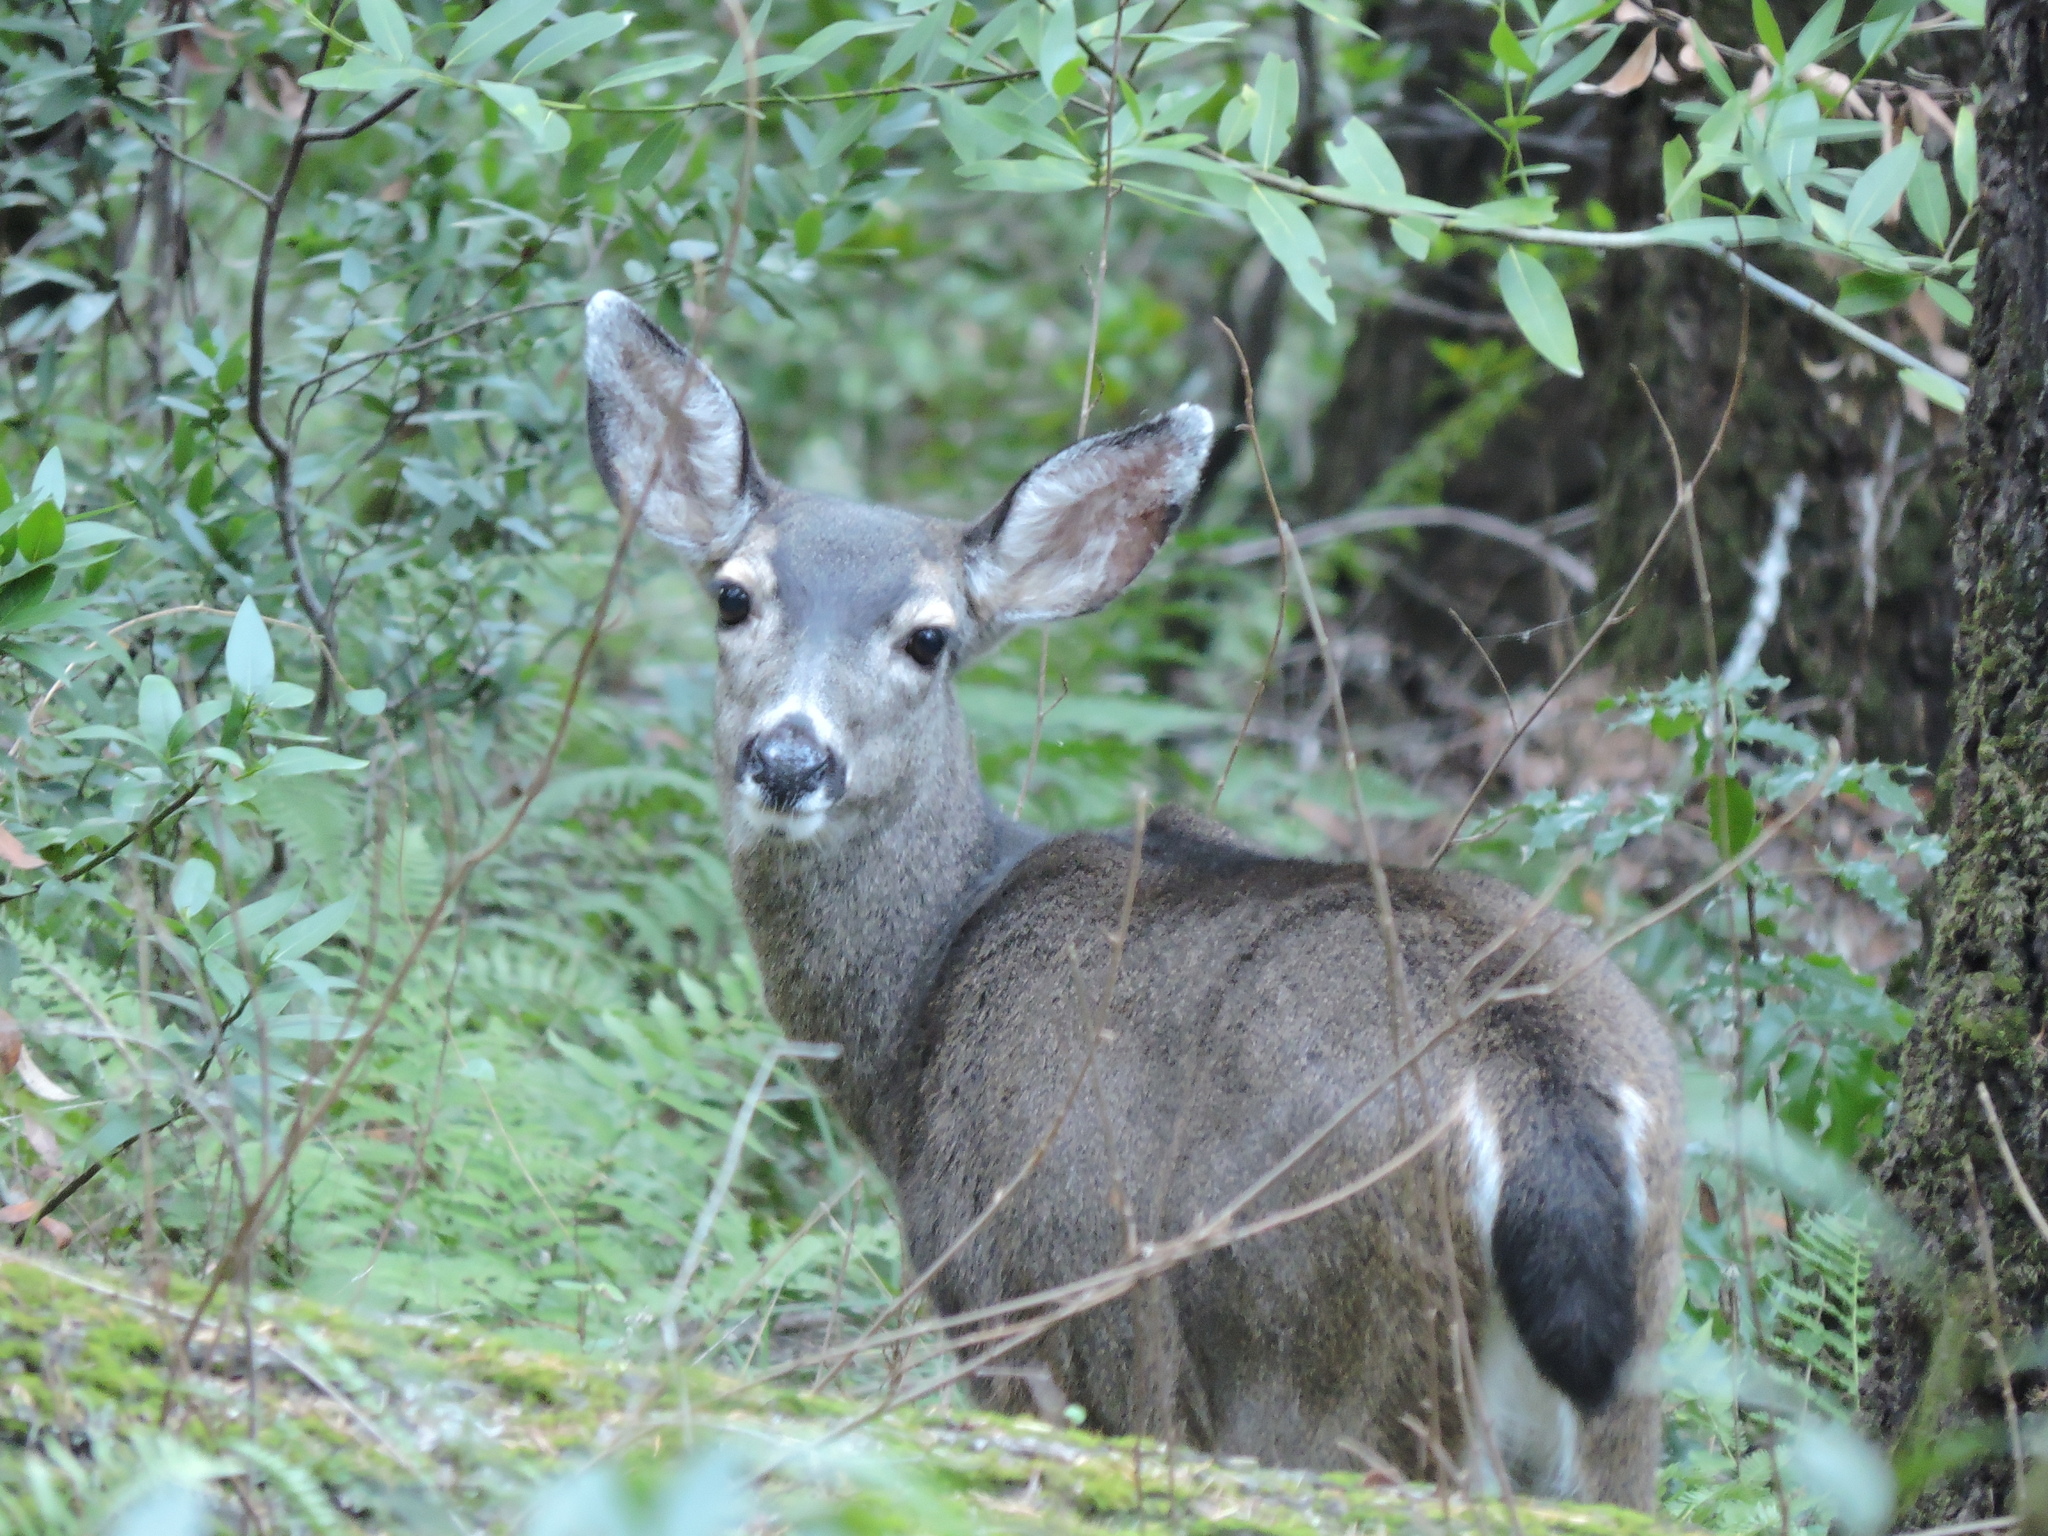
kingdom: Animalia
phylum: Chordata
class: Mammalia
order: Artiodactyla
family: Cervidae
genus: Odocoileus
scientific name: Odocoileus hemionus
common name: Mule deer
